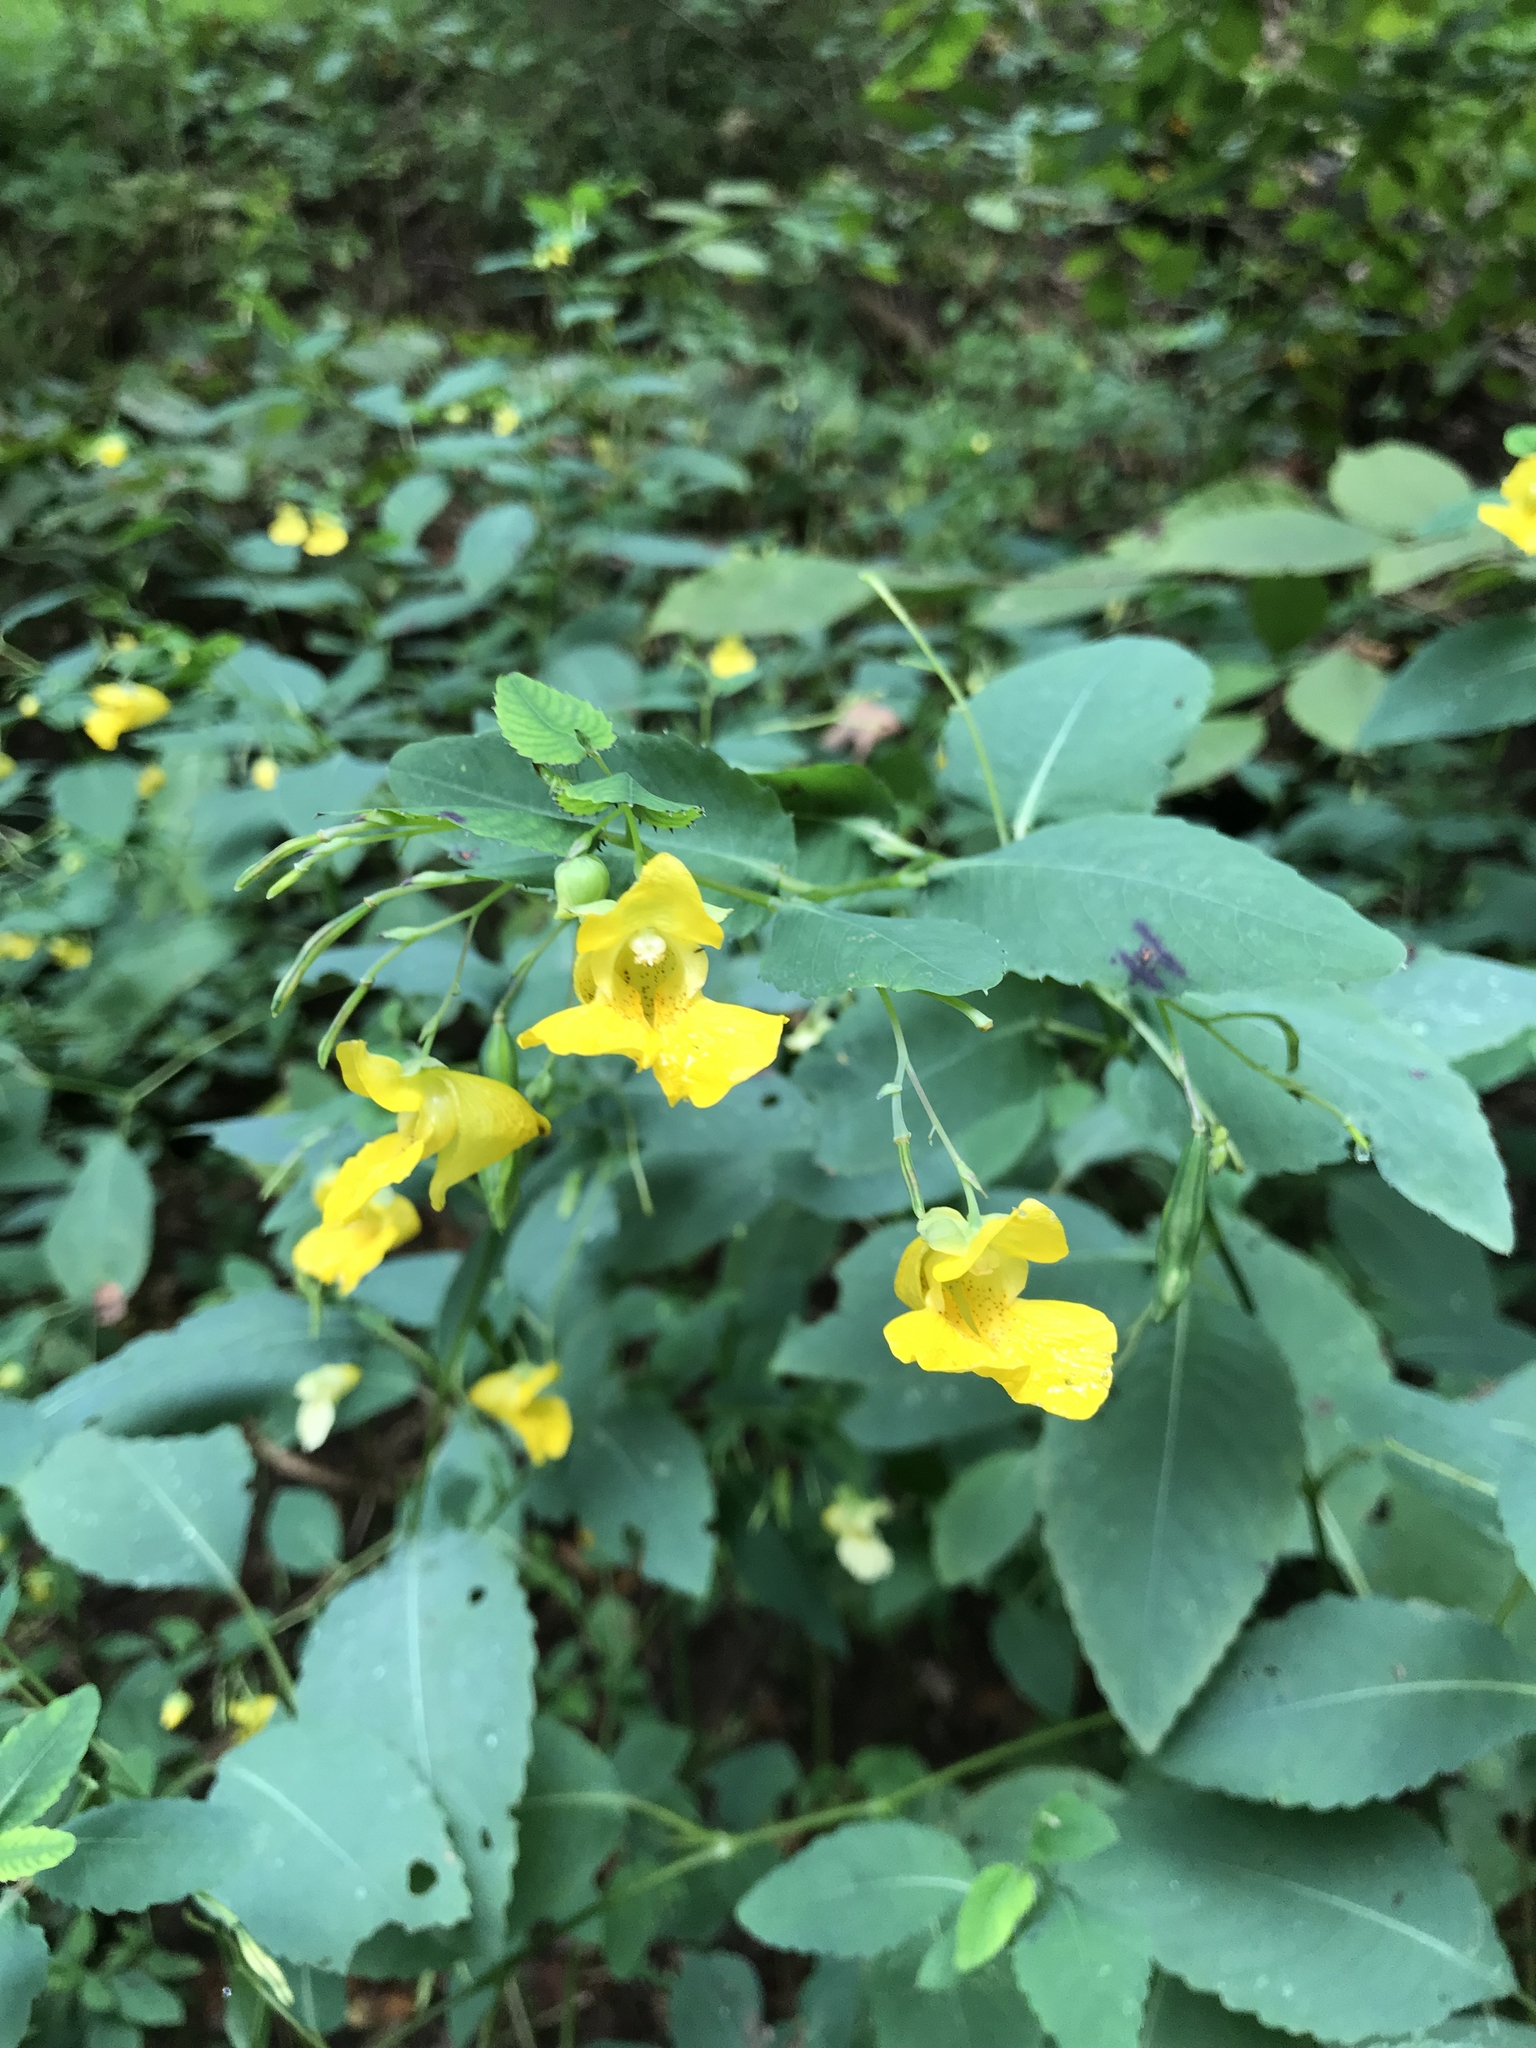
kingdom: Plantae
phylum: Tracheophyta
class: Magnoliopsida
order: Ericales
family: Balsaminaceae
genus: Impatiens
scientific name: Impatiens pallida
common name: Pale snapweed
